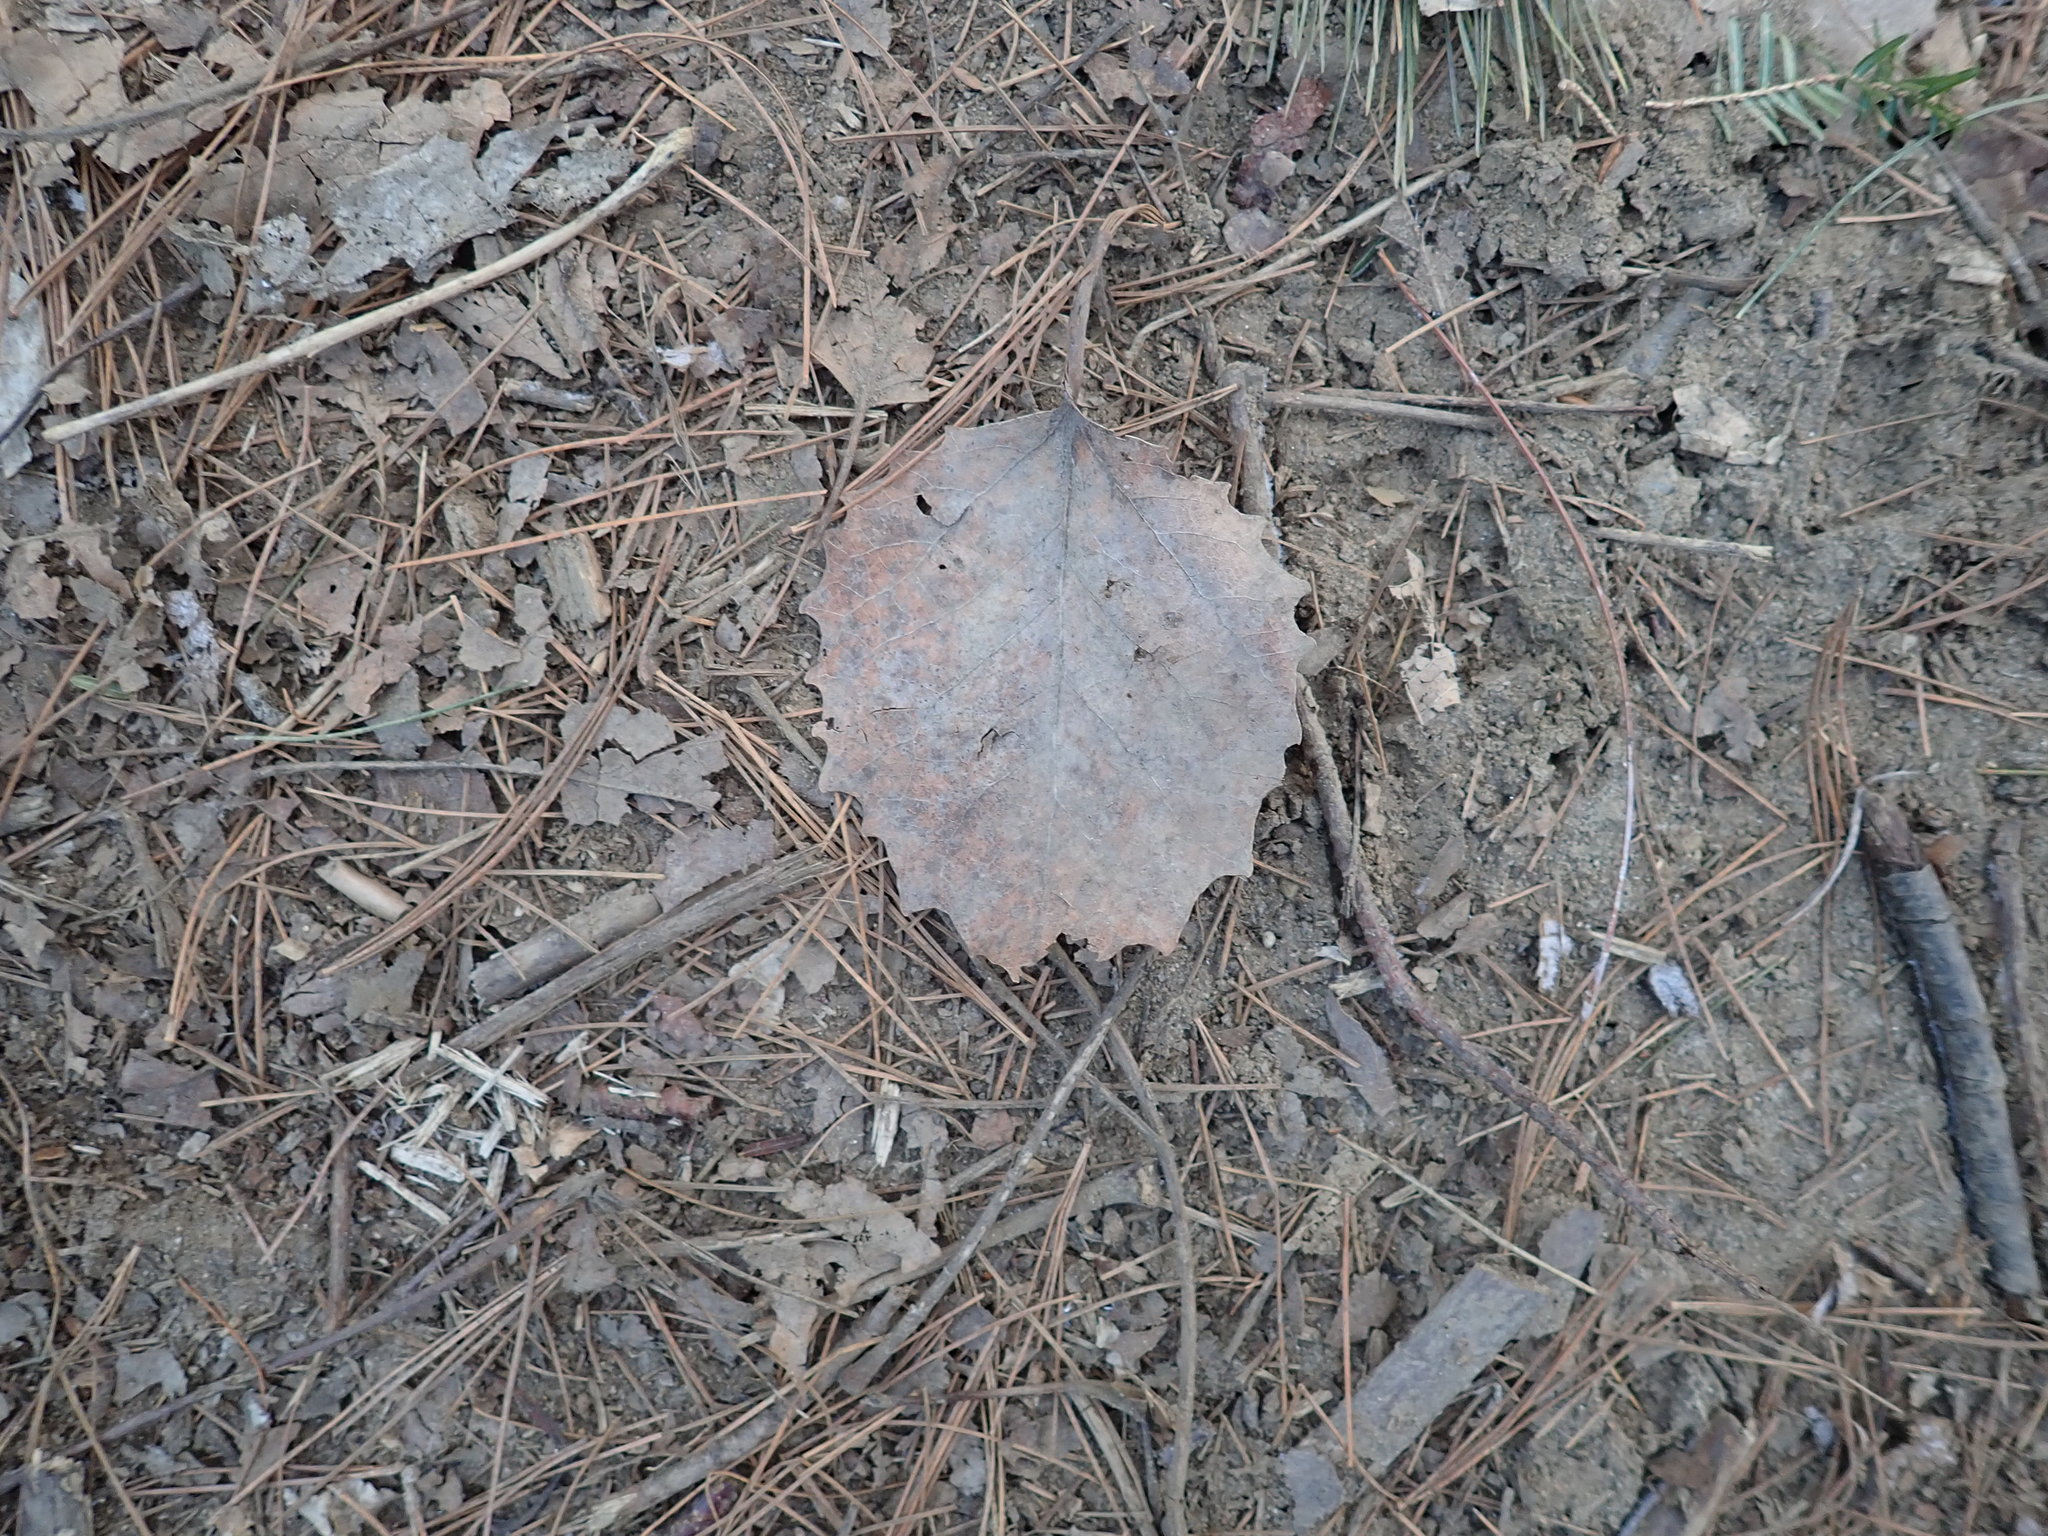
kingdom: Plantae
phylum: Tracheophyta
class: Magnoliopsida
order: Malpighiales
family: Salicaceae
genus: Populus
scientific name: Populus grandidentata
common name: Bigtooth aspen
